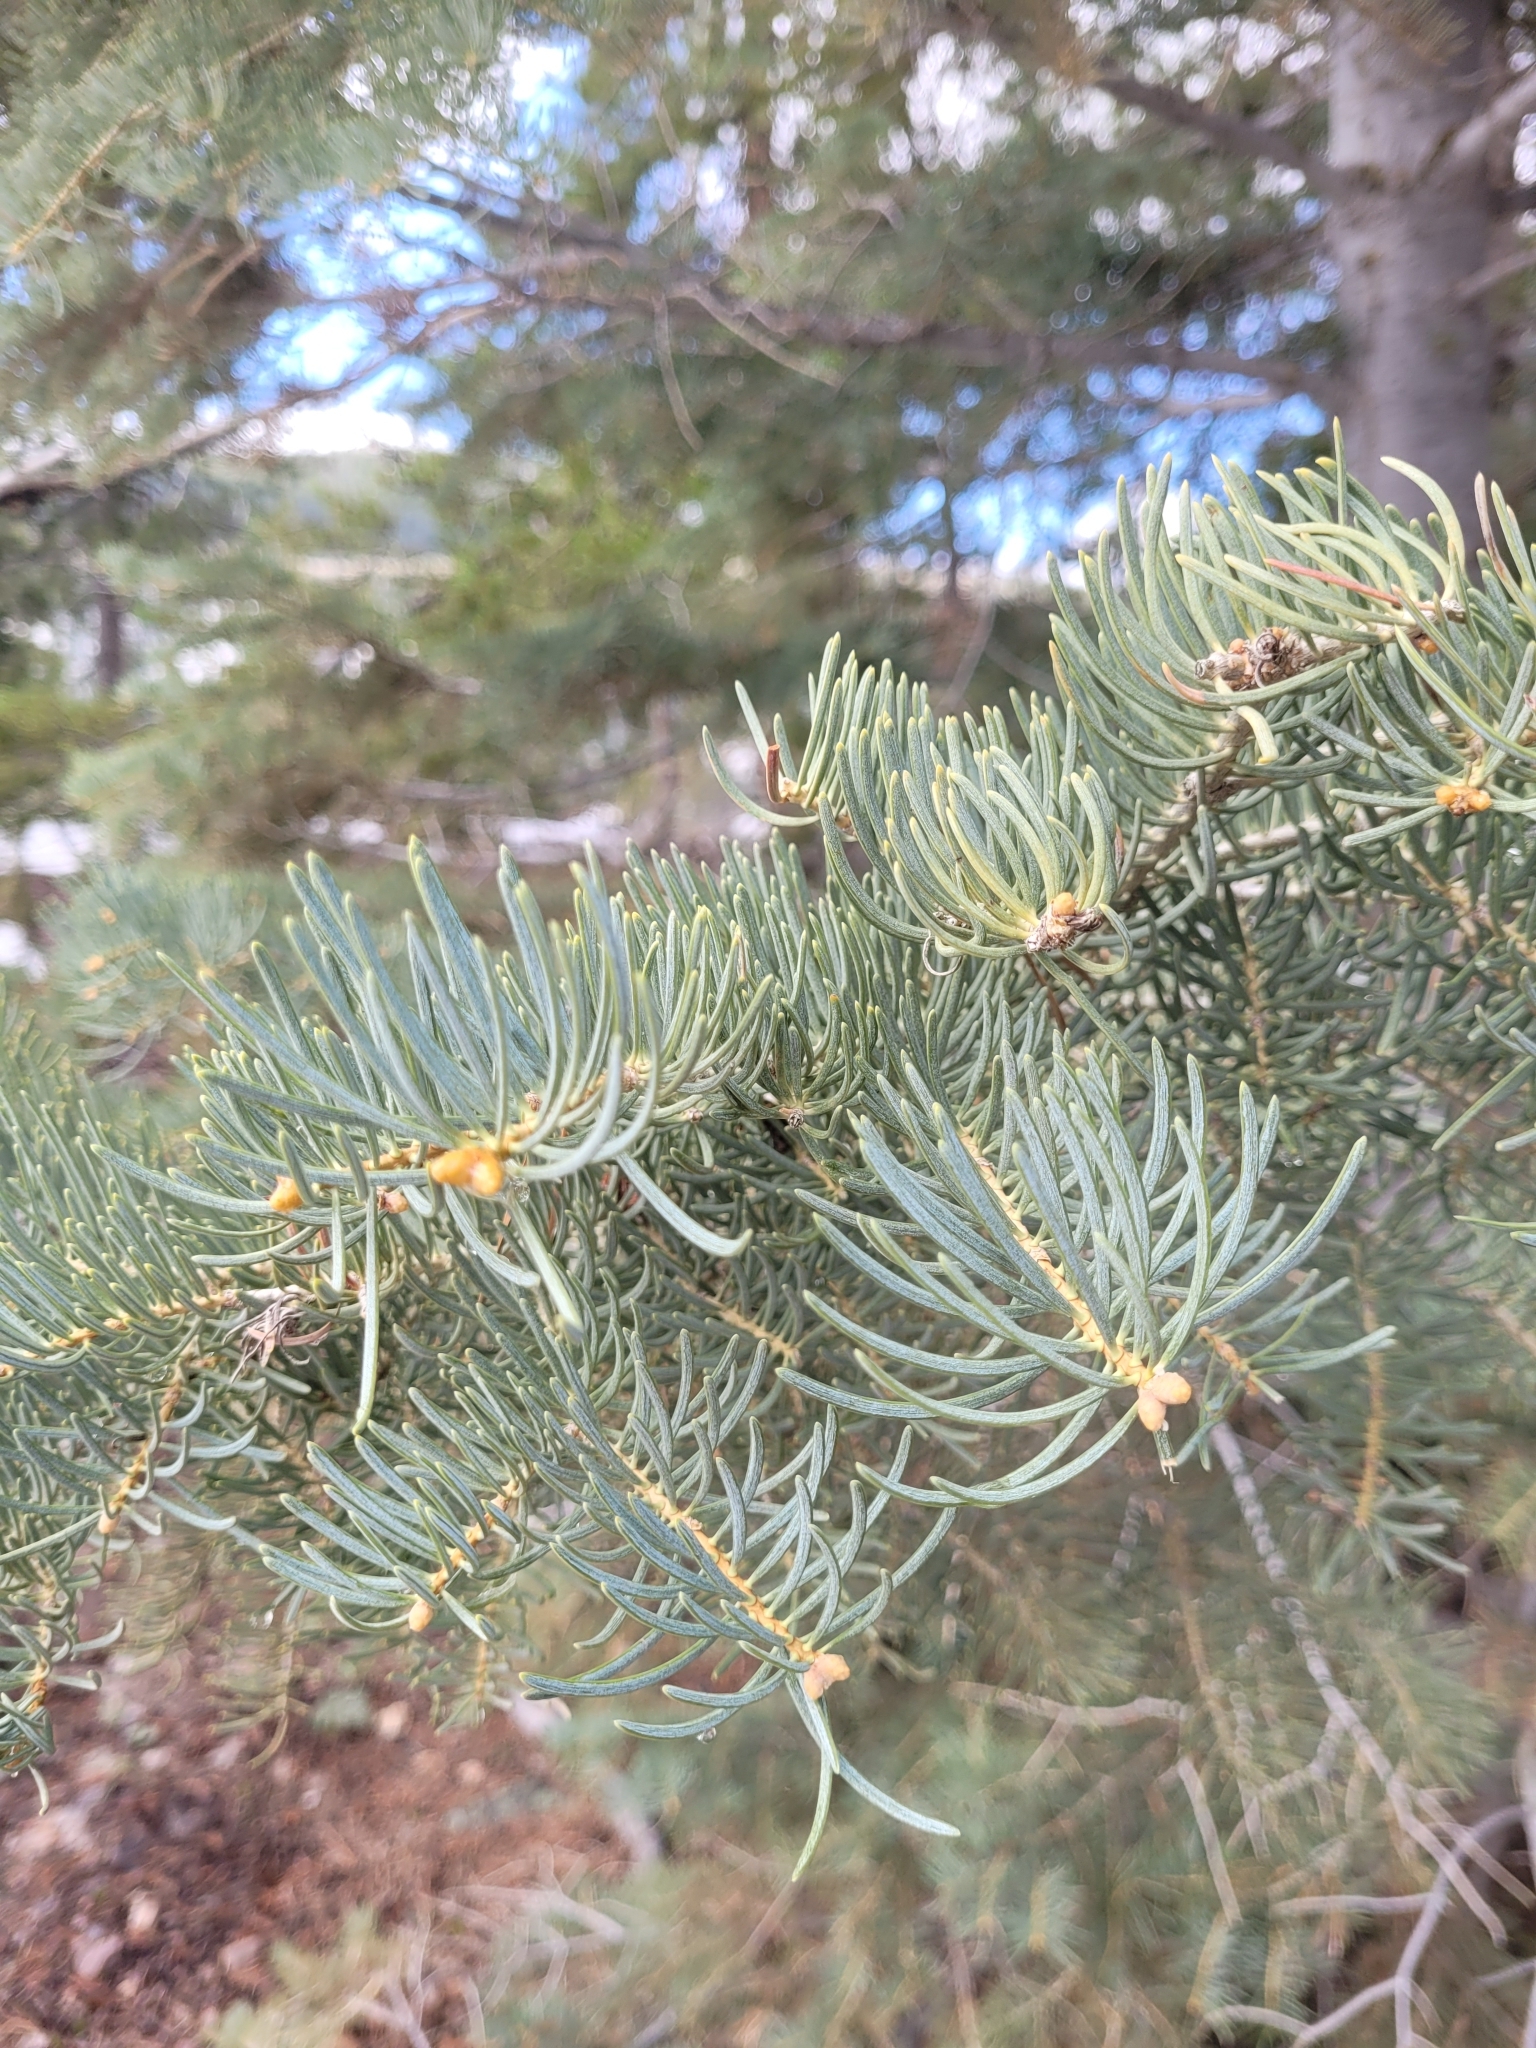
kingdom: Plantae
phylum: Tracheophyta
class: Pinopsida
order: Pinales
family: Pinaceae
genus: Abies
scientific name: Abies concolor
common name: Colorado fir
